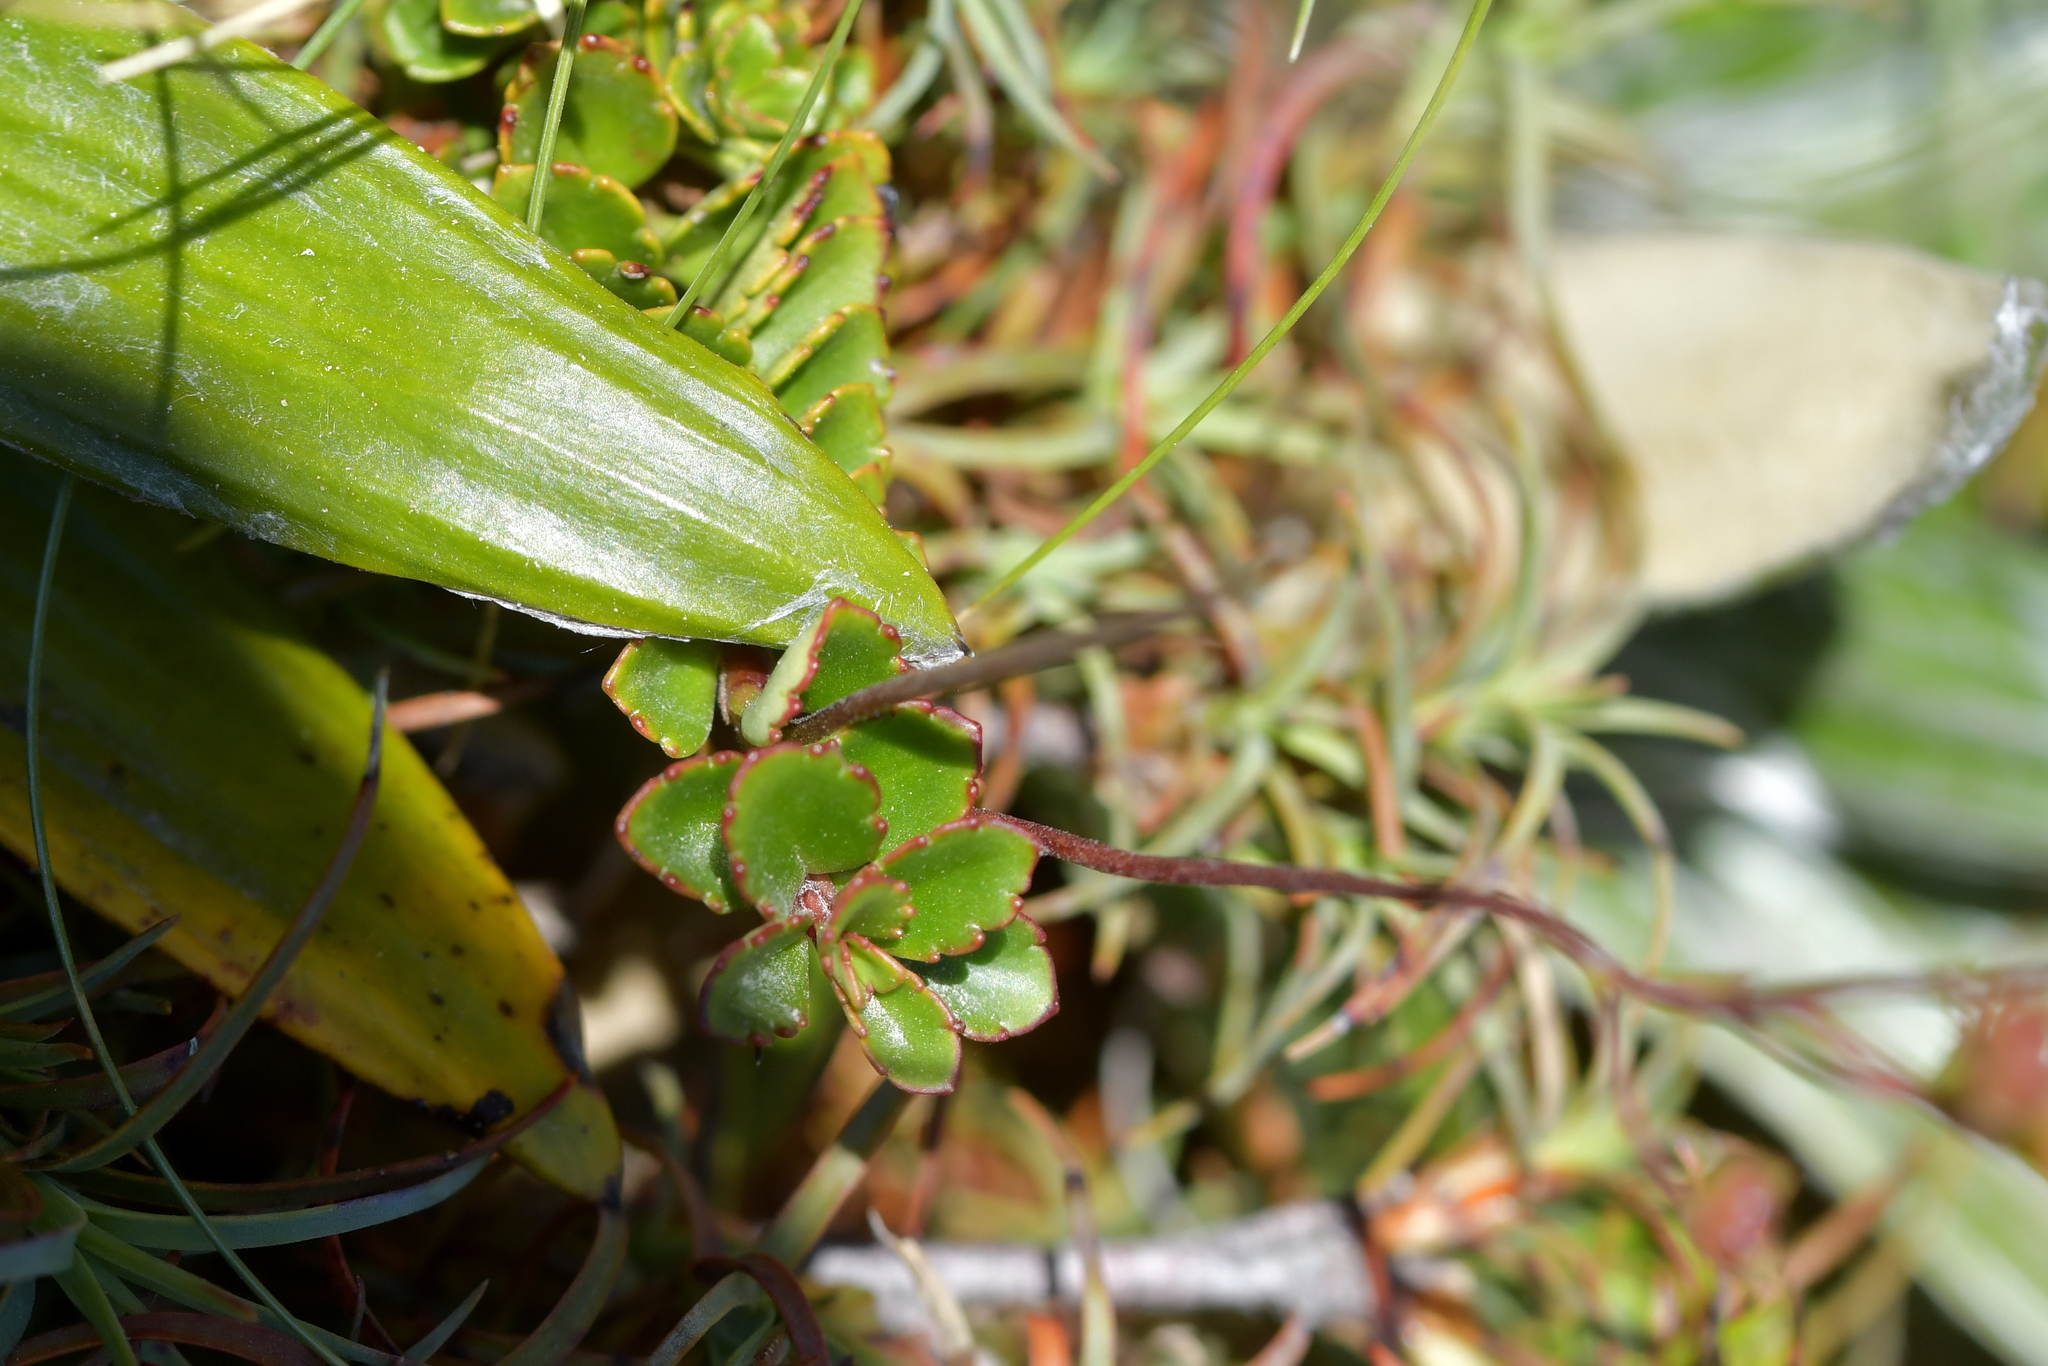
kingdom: Plantae
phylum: Tracheophyta
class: Magnoliopsida
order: Lamiales
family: Plantaginaceae
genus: Veronica
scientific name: Veronica hookeriana
